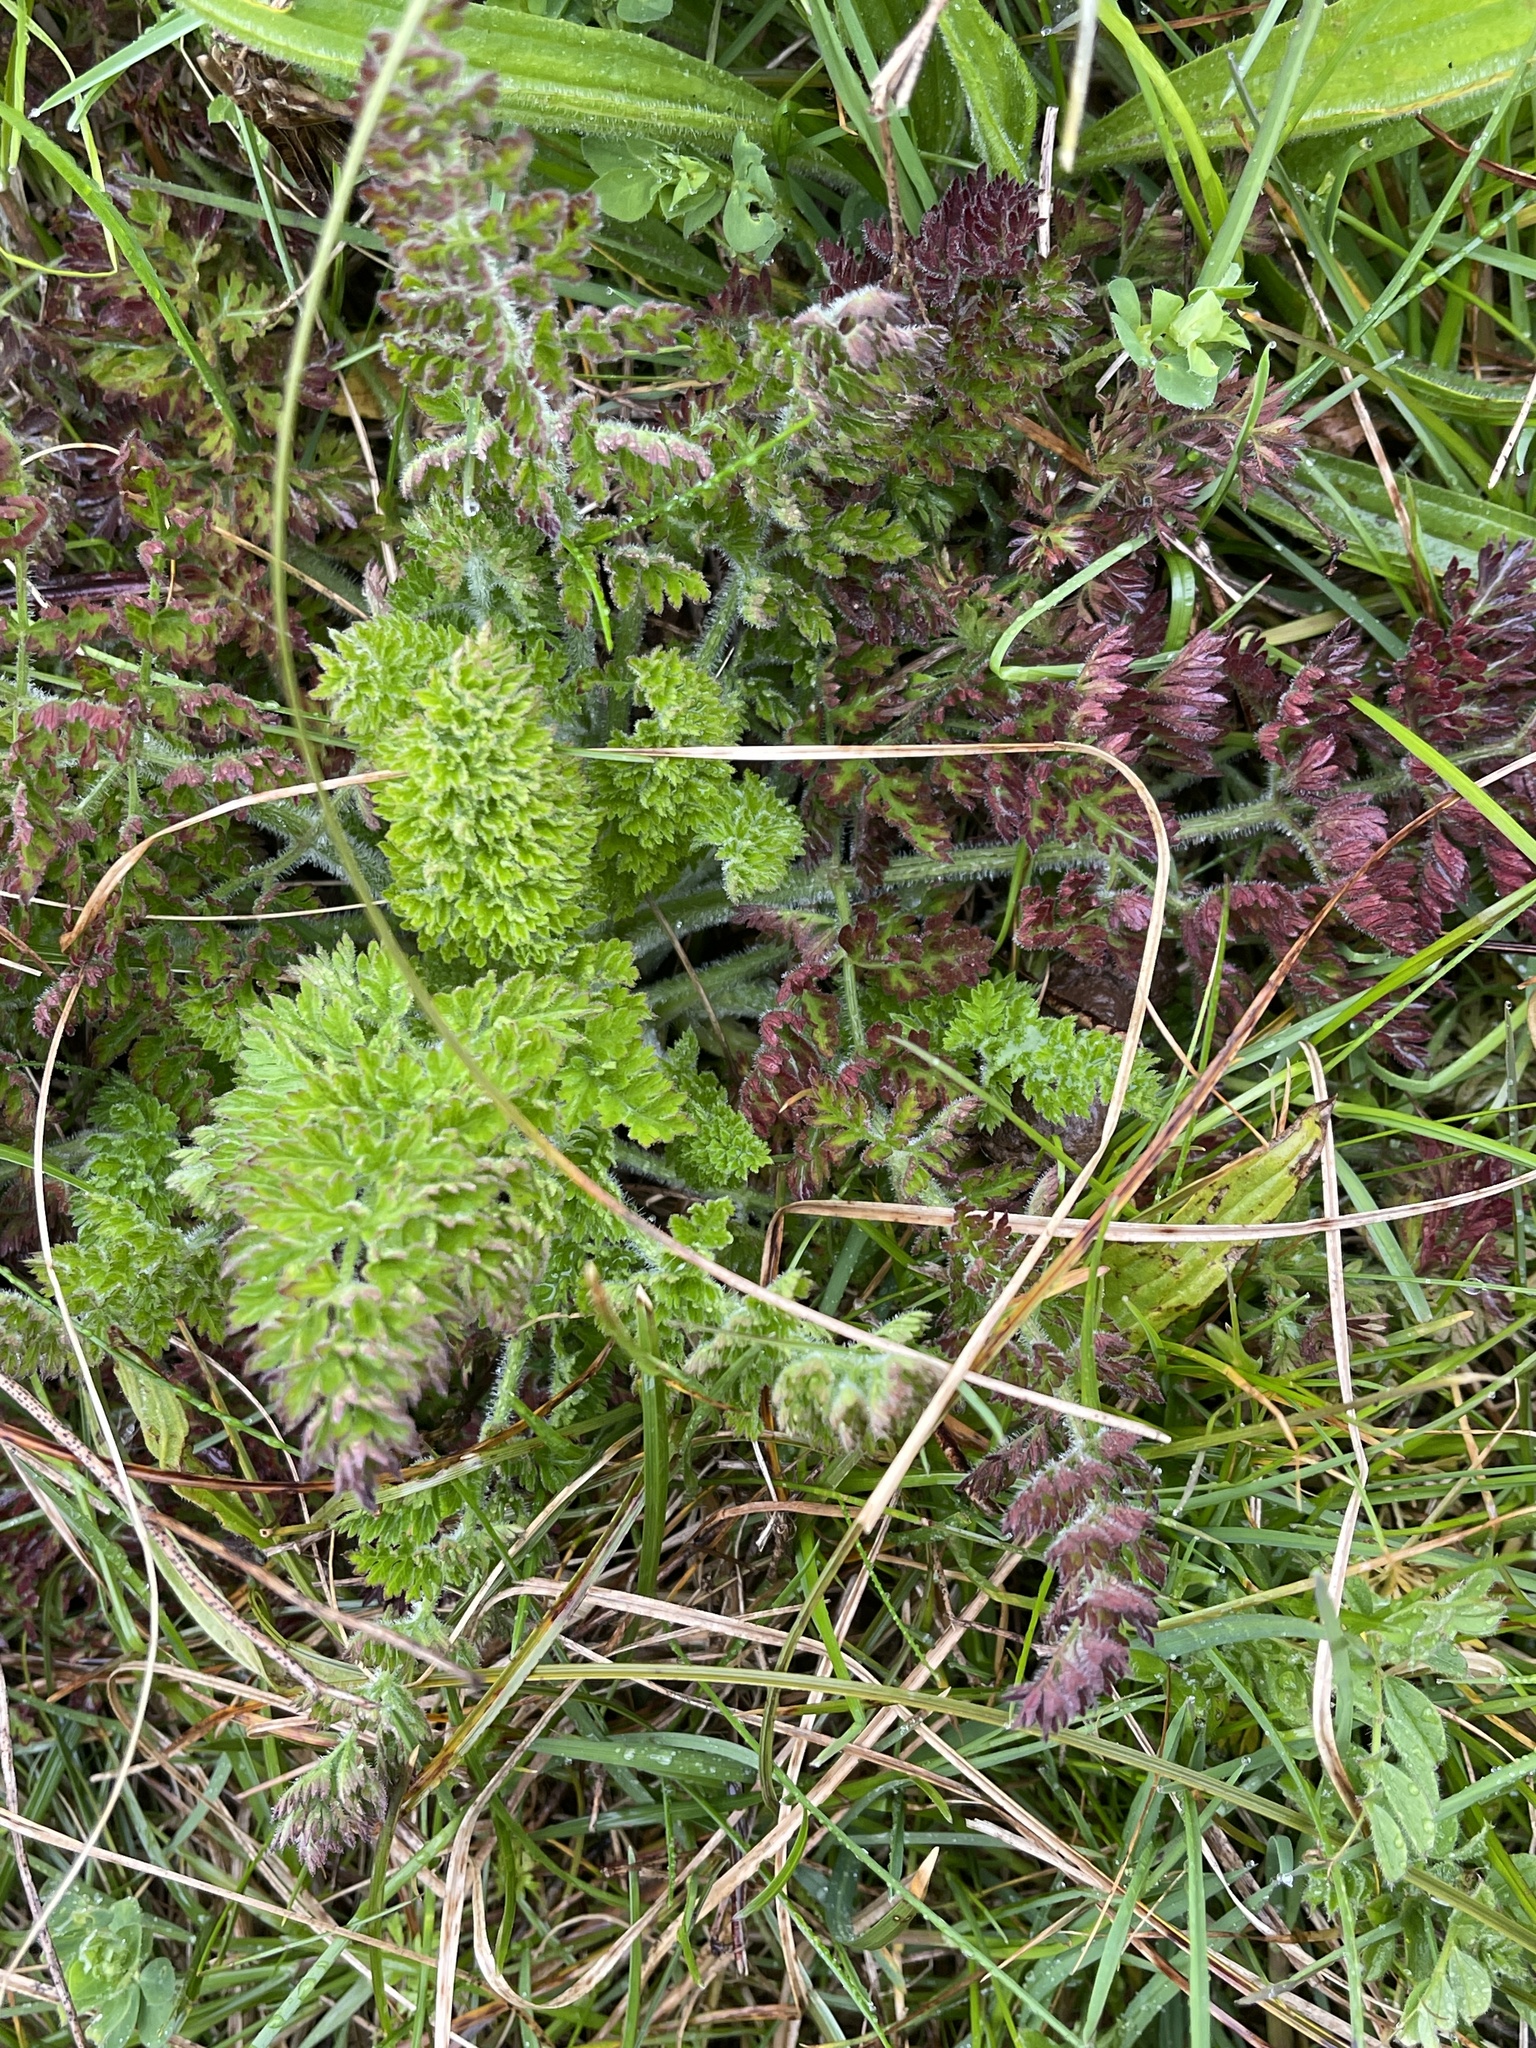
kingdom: Plantae
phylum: Tracheophyta
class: Magnoliopsida
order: Apiales
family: Apiaceae
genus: Daucus
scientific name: Daucus carota
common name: Wild carrot
